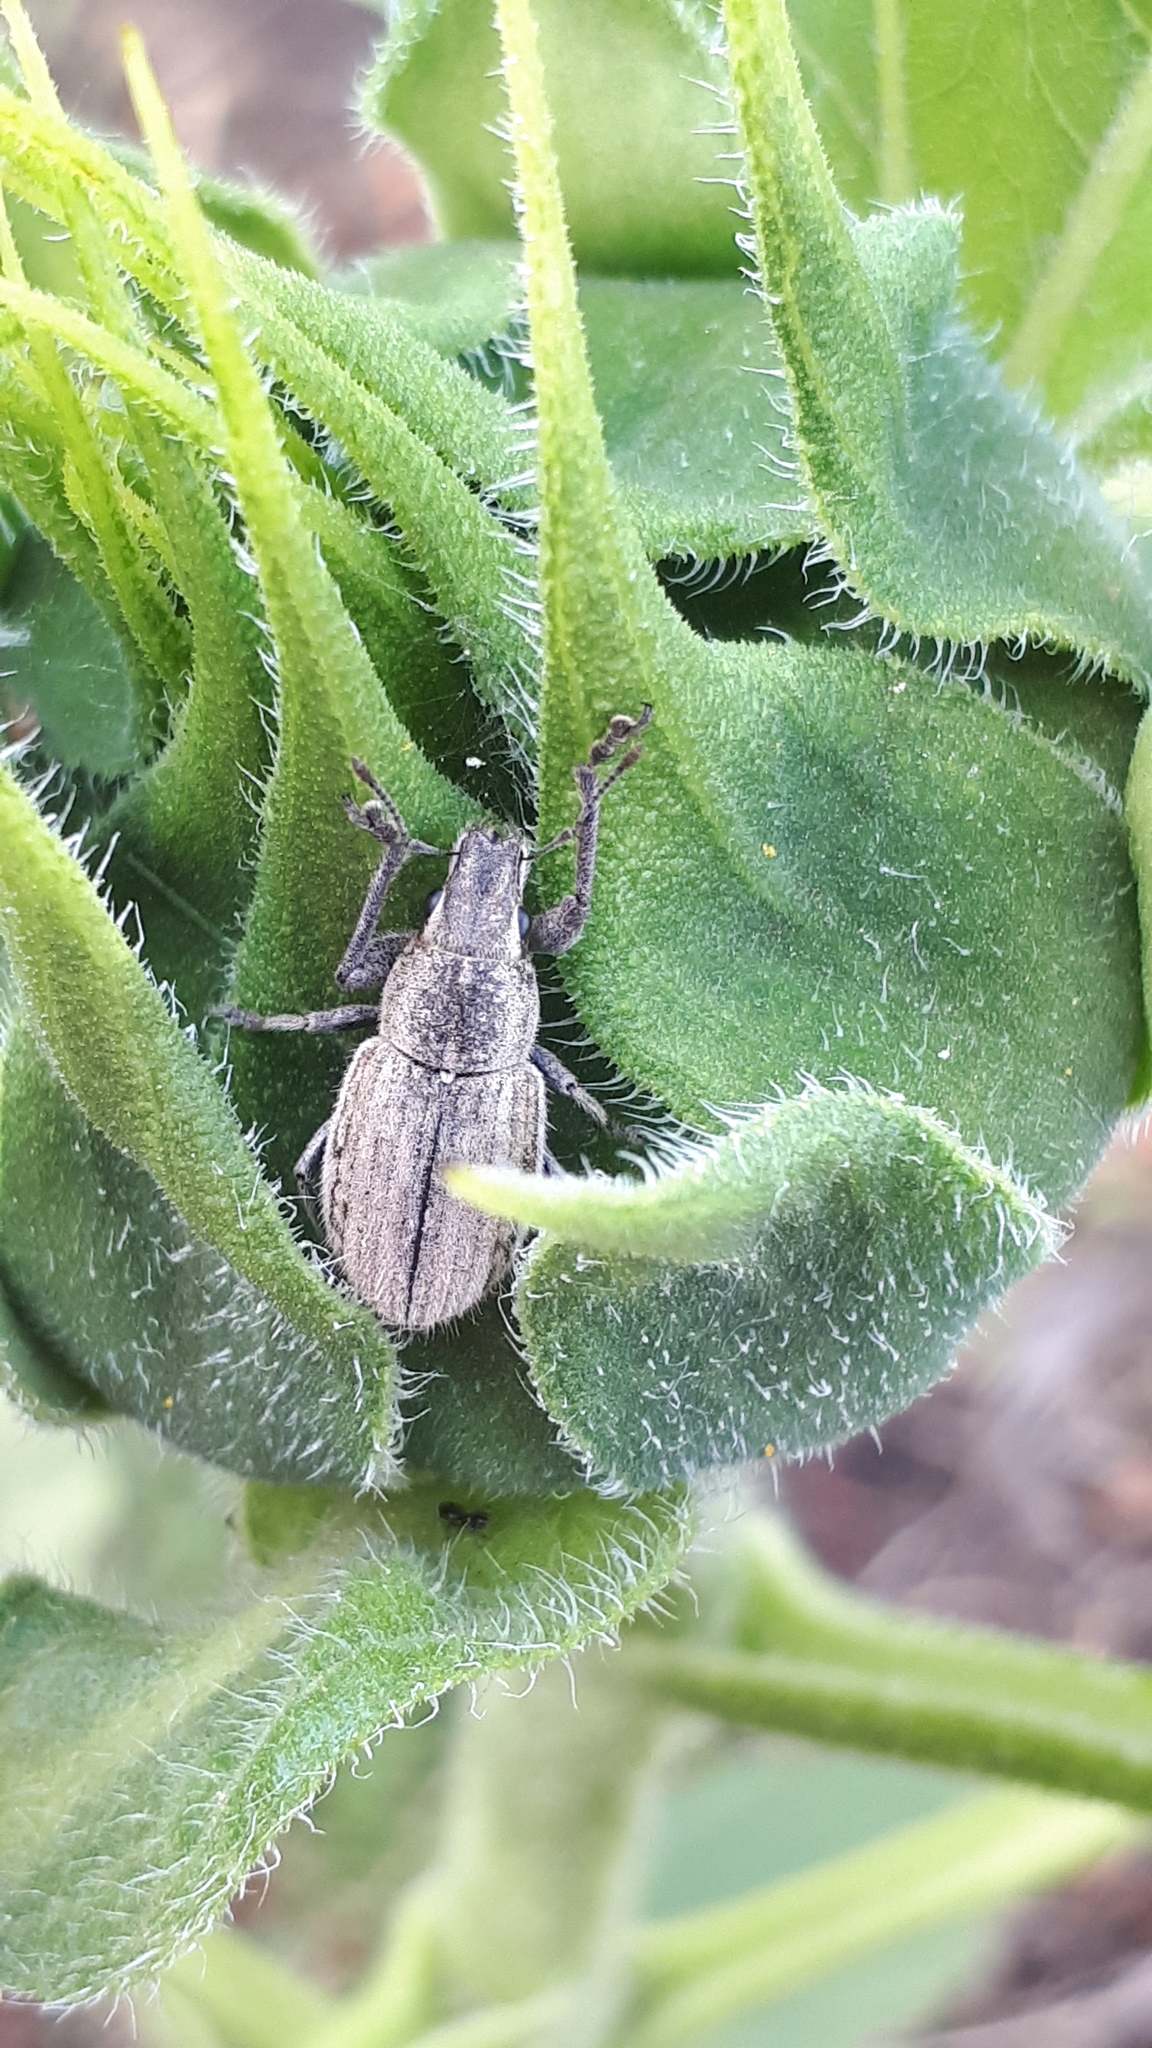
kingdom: Animalia
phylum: Arthropoda
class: Insecta
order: Coleoptera
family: Curculionidae
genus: Naupactus
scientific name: Naupactus leucoloma
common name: Whitefringed beetle
